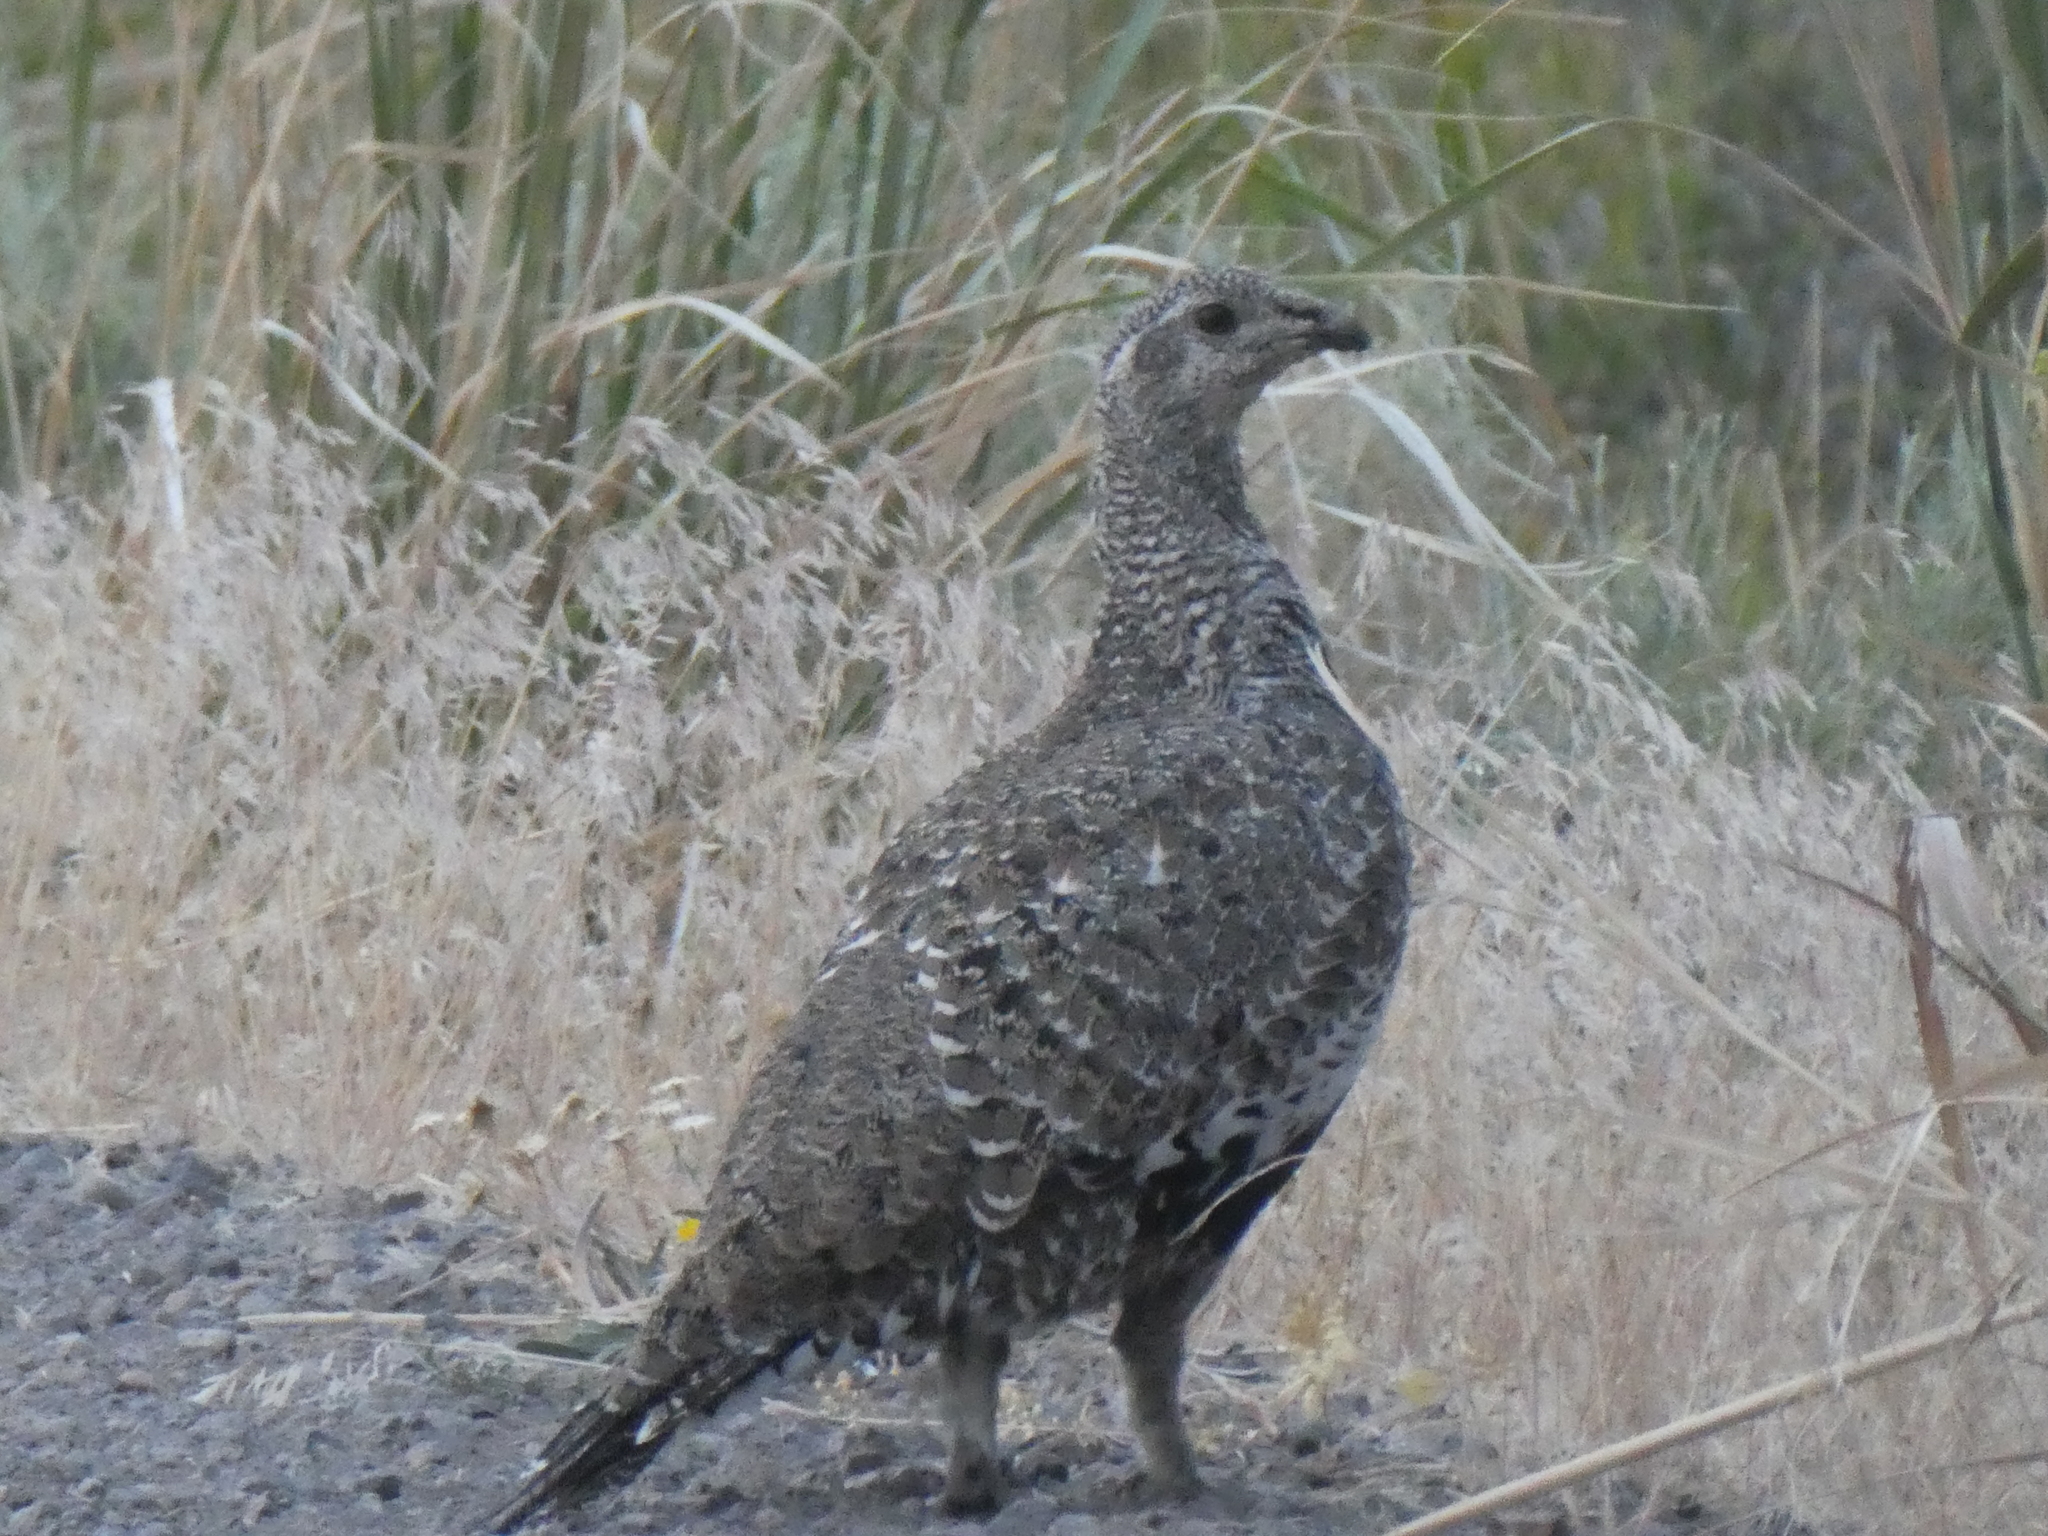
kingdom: Animalia
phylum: Chordata
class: Aves
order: Galliformes
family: Phasianidae
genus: Centrocercus
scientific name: Centrocercus urophasianus
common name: Sage grouse
